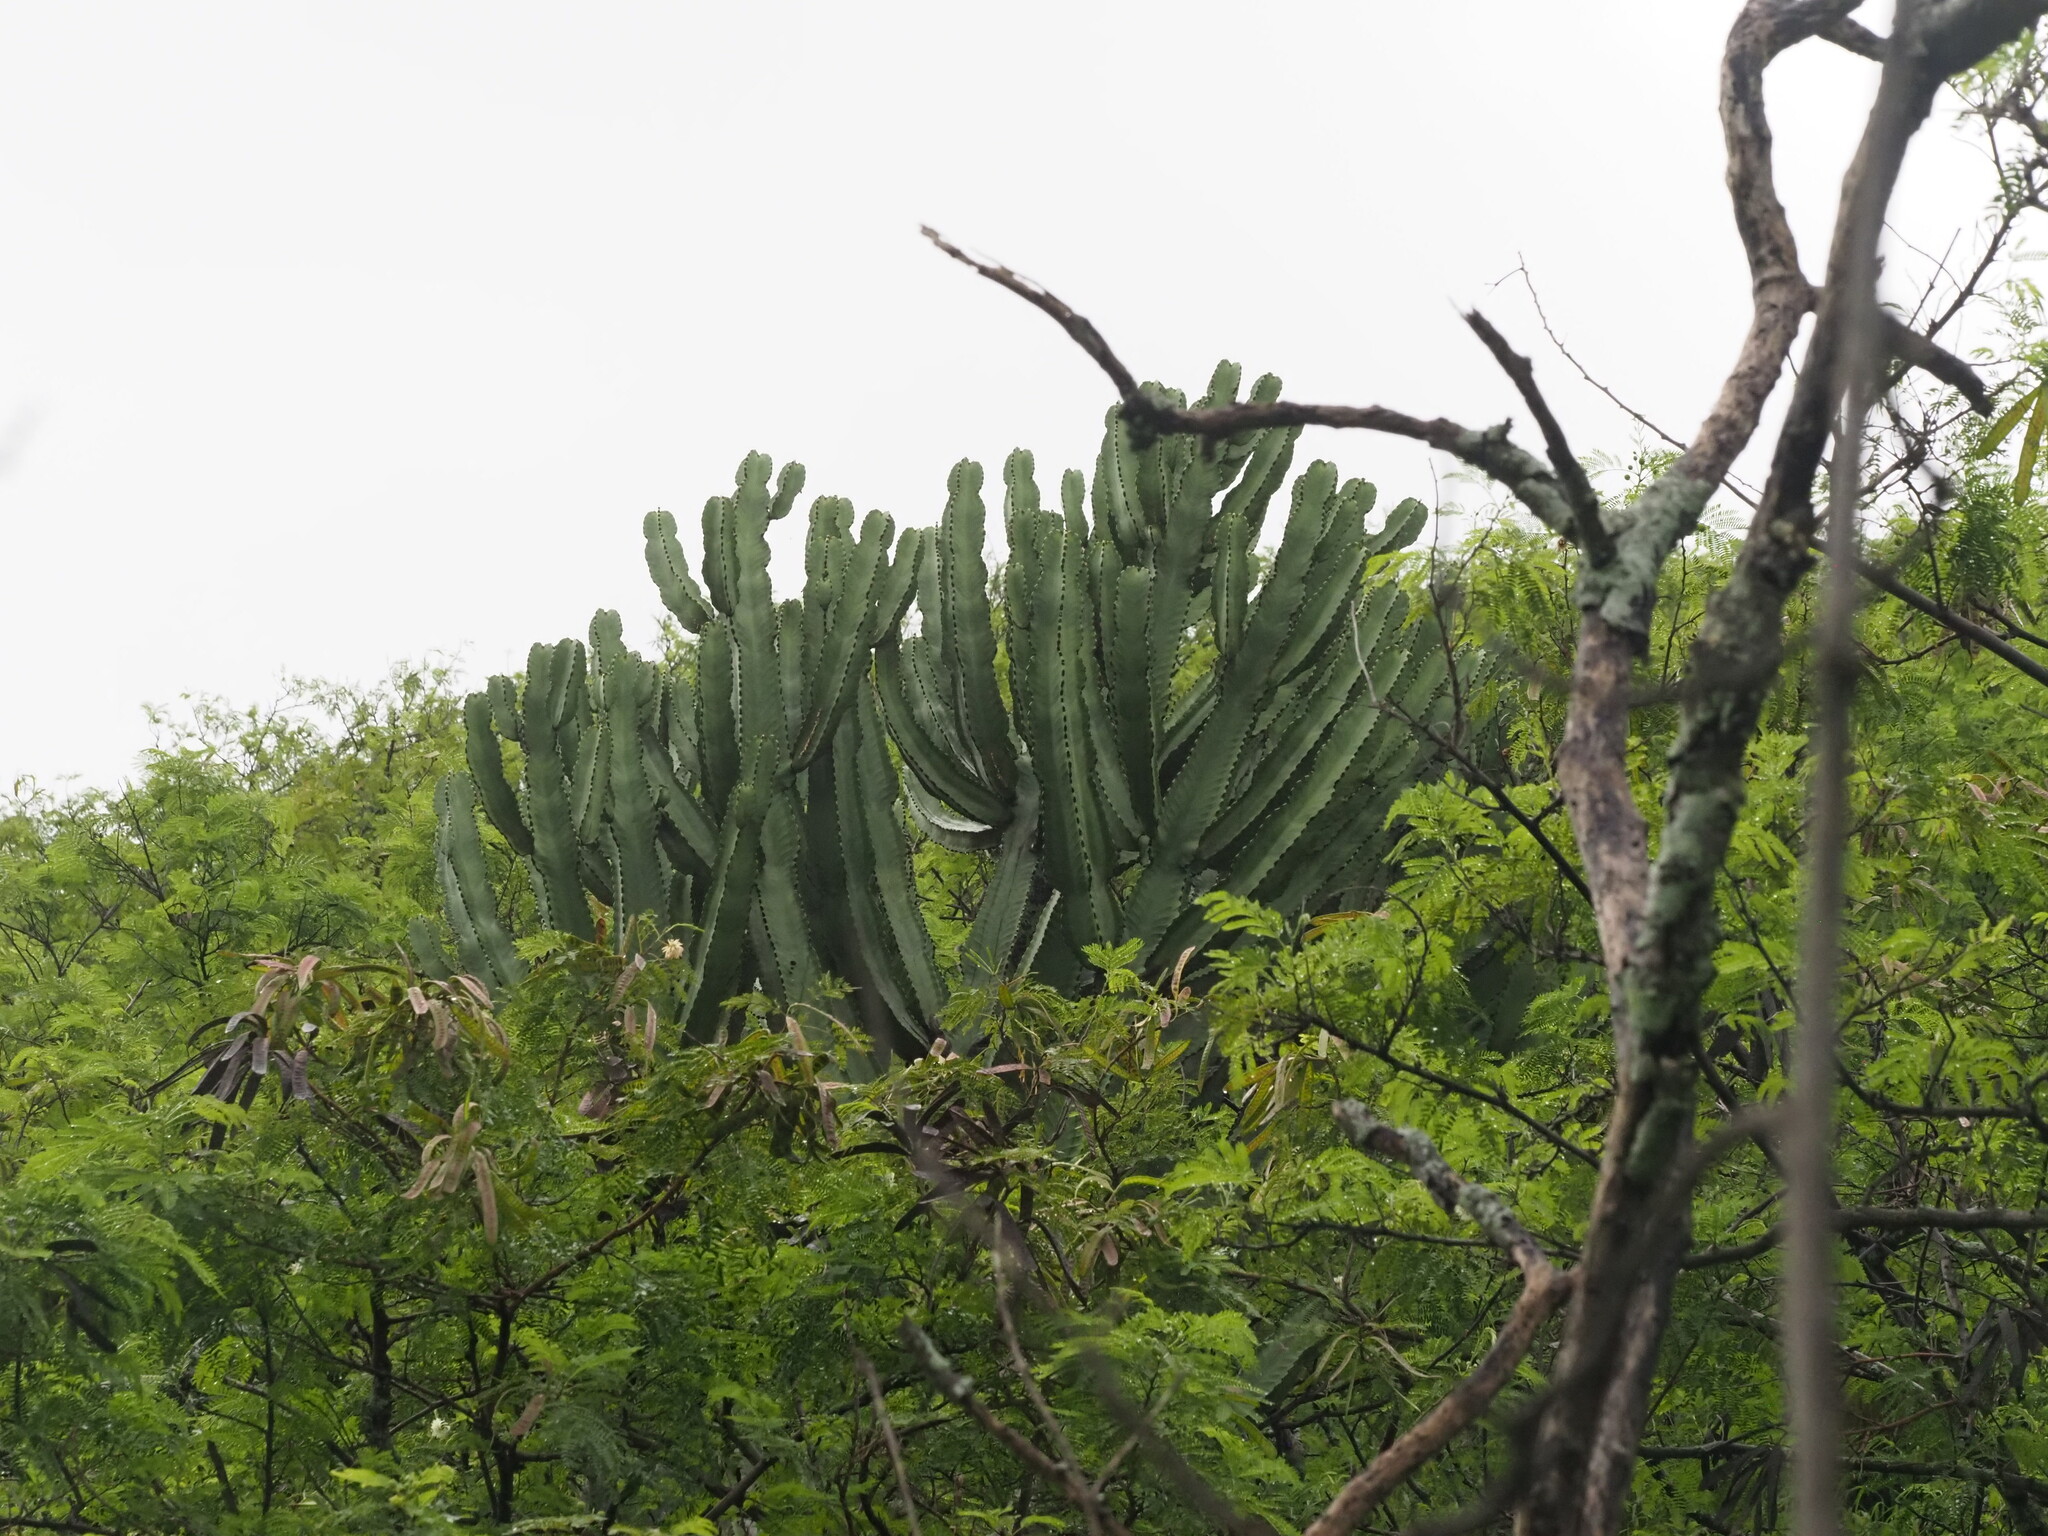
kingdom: Plantae
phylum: Tracheophyta
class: Magnoliopsida
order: Malpighiales
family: Euphorbiaceae
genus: Euphorbia
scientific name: Euphorbia ingens
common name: Cactus spurge
